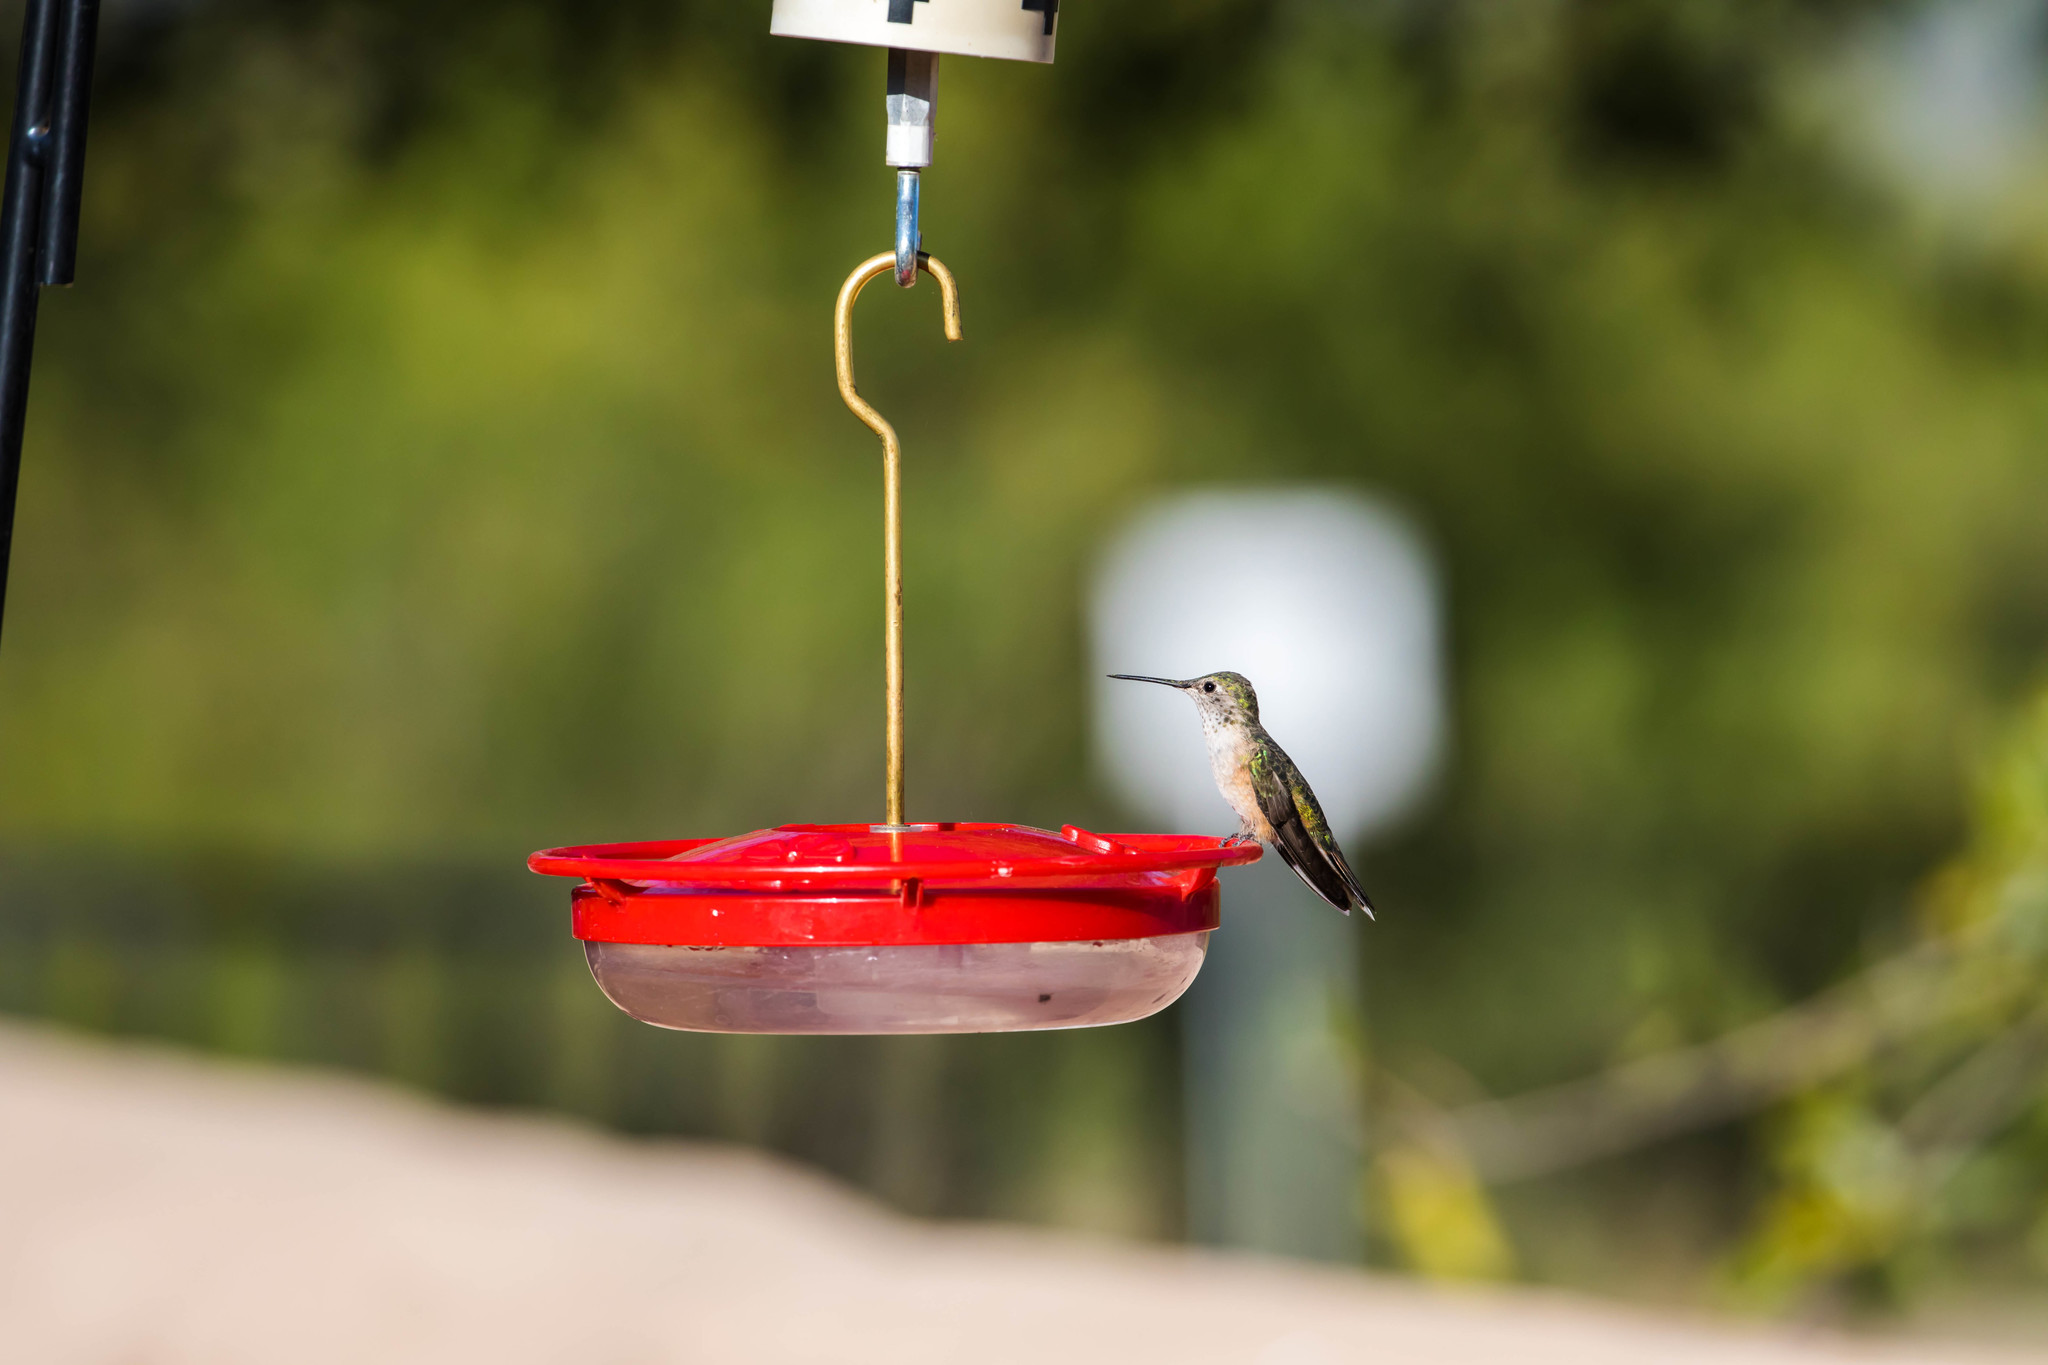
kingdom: Animalia
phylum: Chordata
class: Aves
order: Apodiformes
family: Trochilidae
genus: Selasphorus
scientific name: Selasphorus platycercus
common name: Broad-tailed hummingbird
